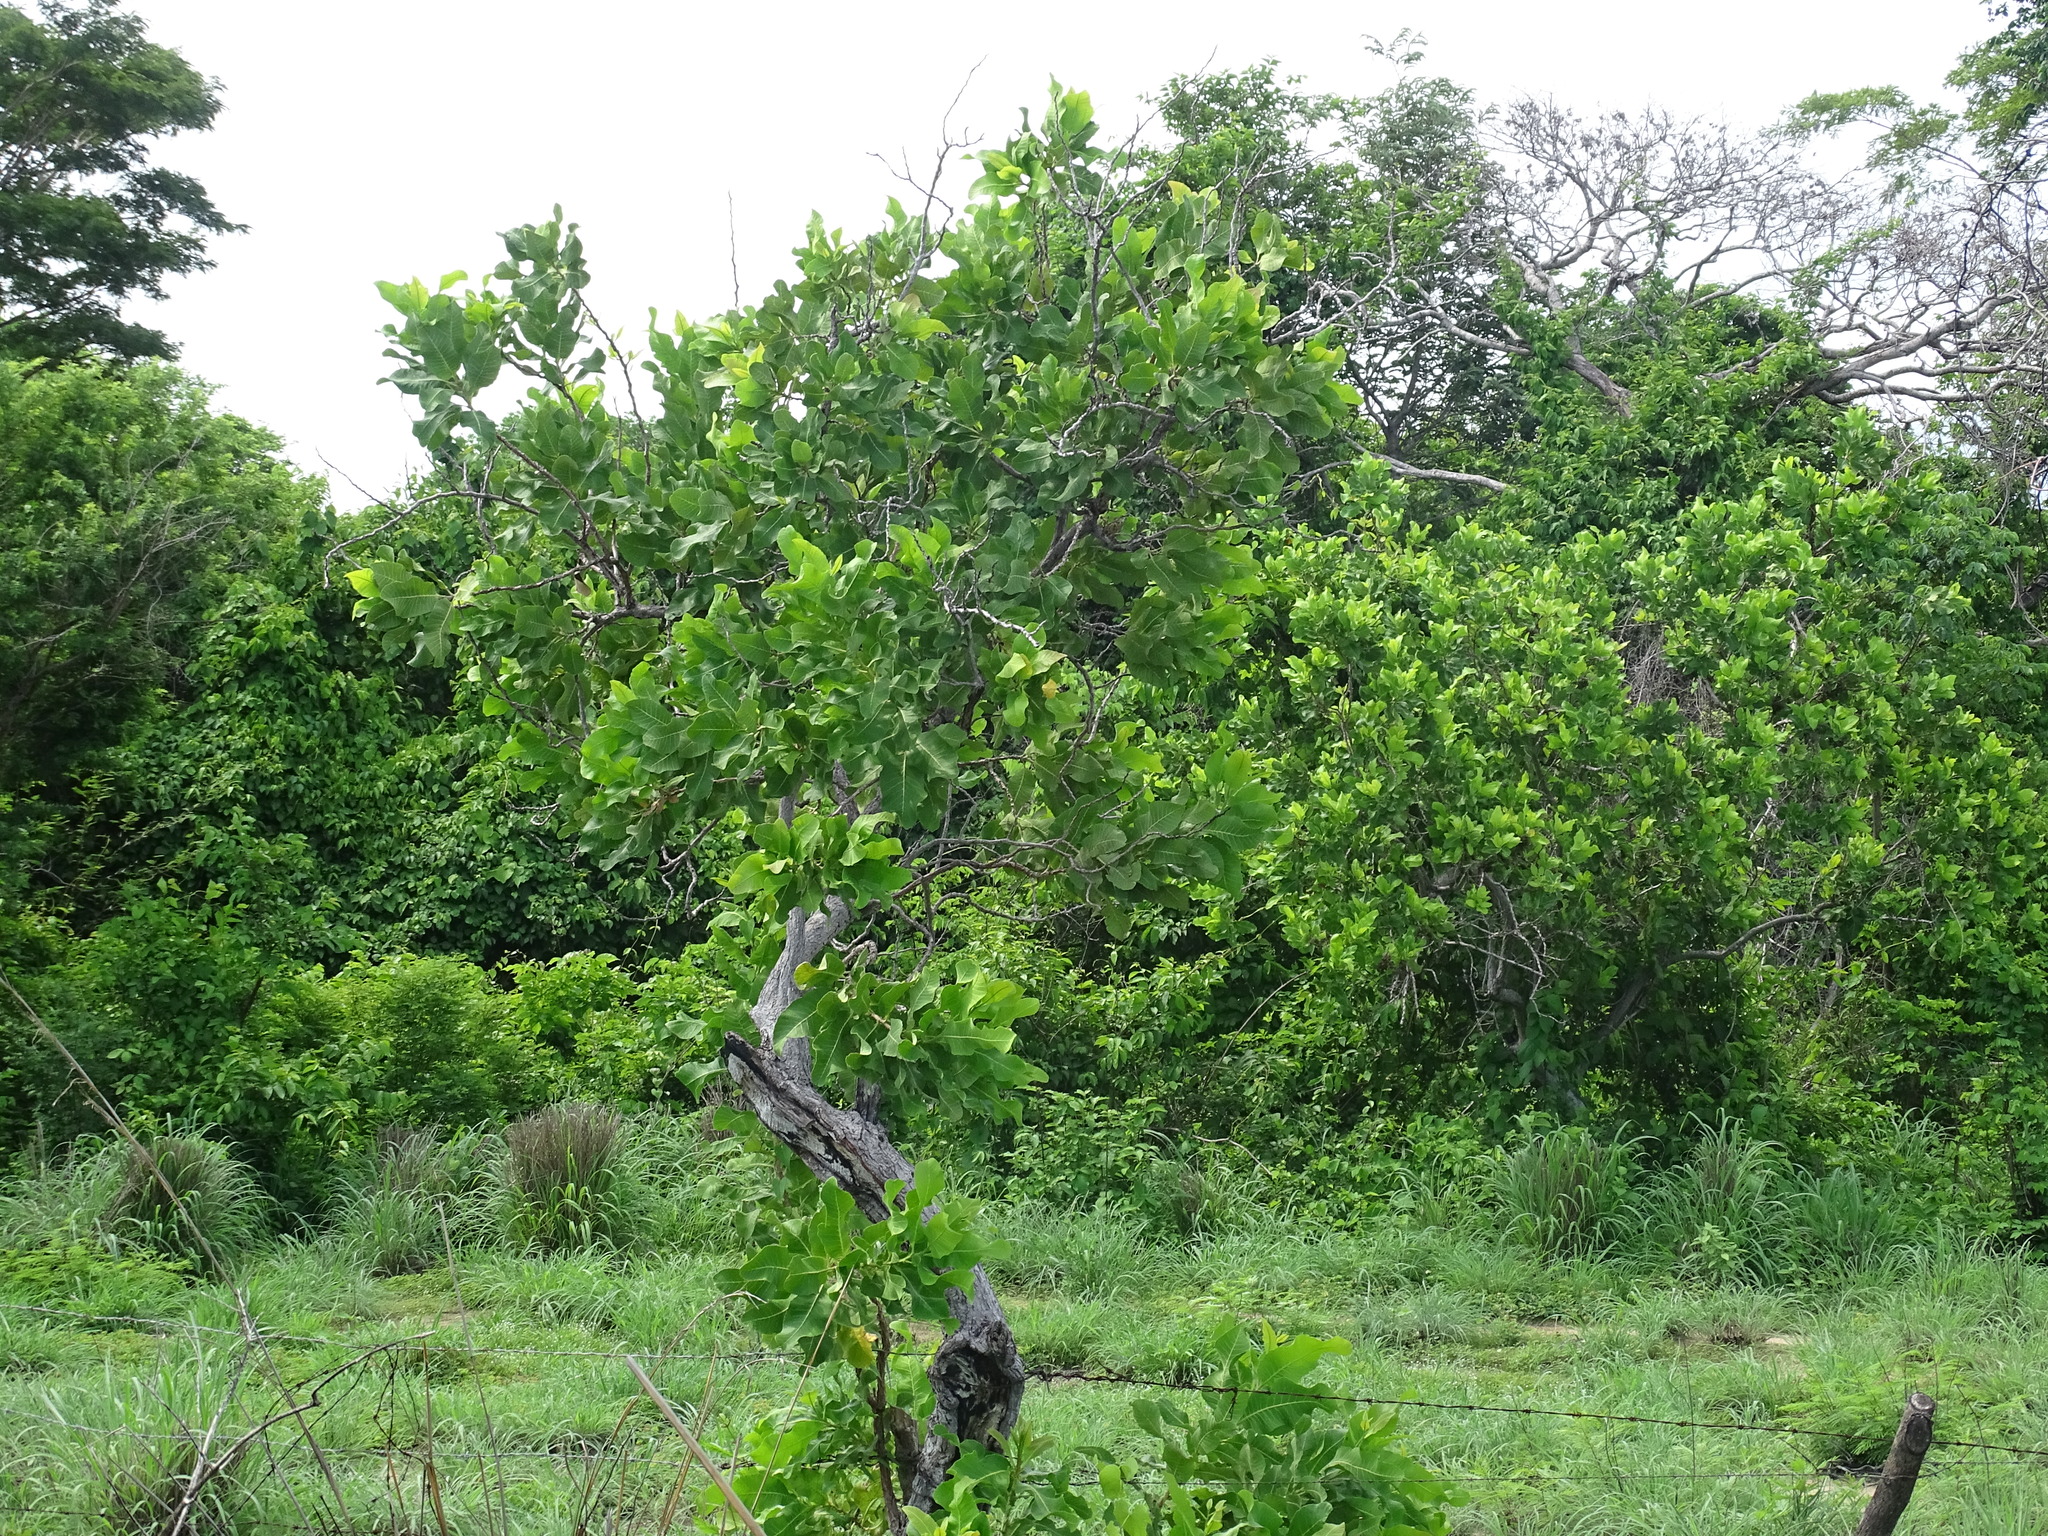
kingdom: Plantae
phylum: Tracheophyta
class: Magnoliopsida
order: Dilleniales
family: Dilleniaceae
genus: Curatella
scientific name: Curatella americana
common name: Sandpaper tree
